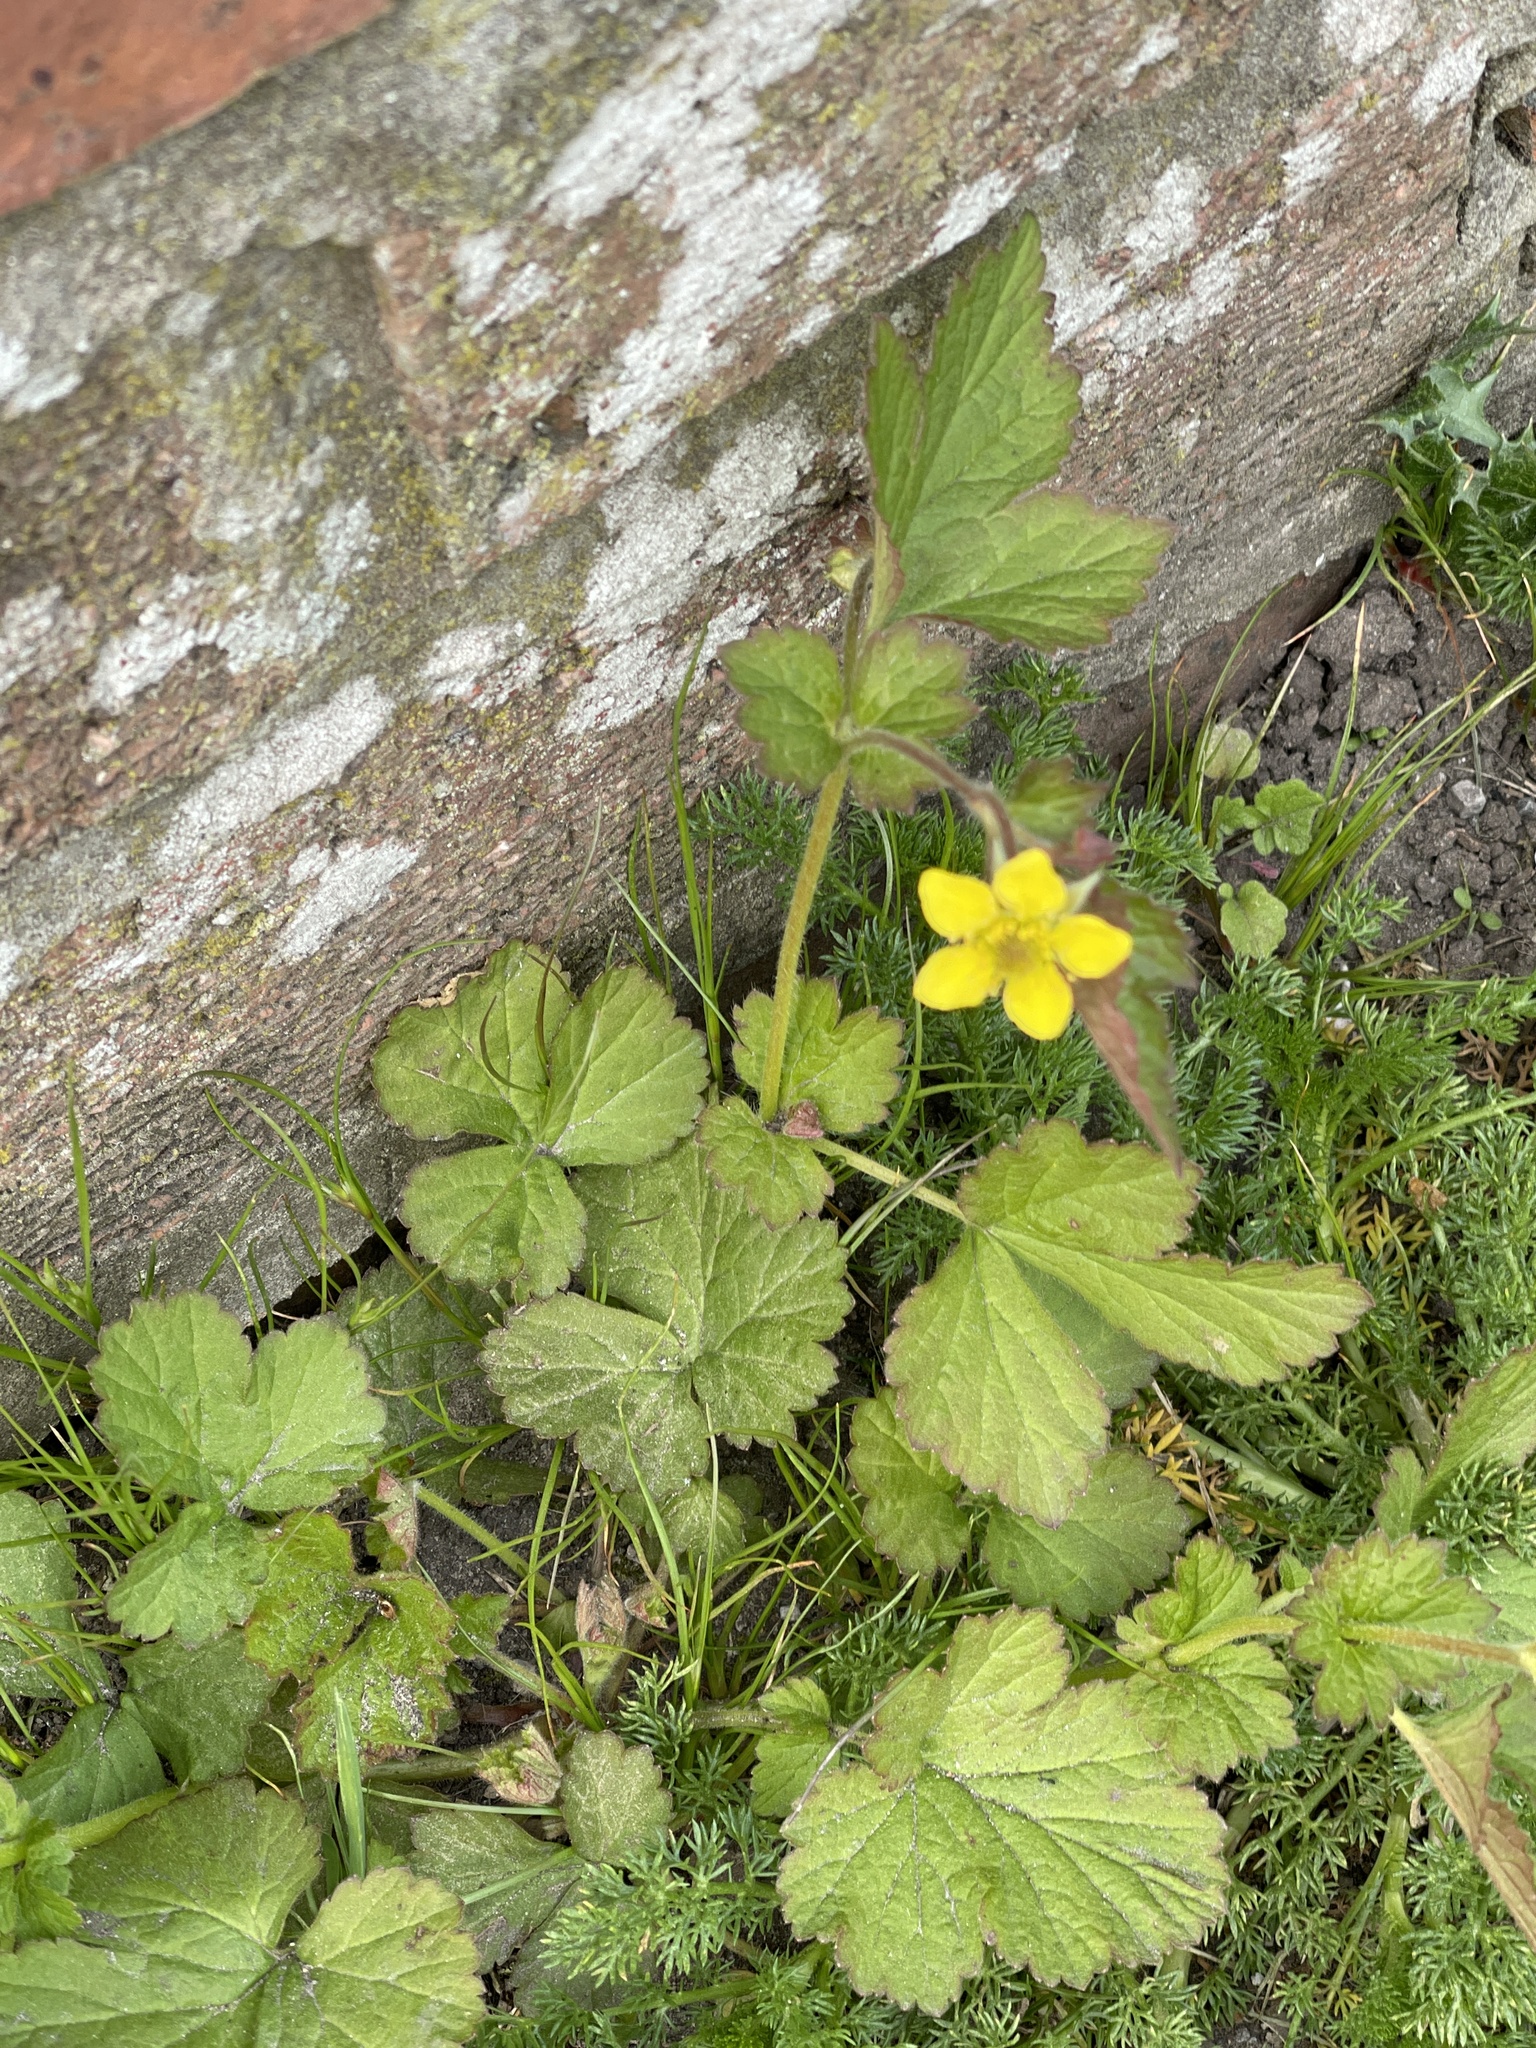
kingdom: Plantae
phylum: Tracheophyta
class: Magnoliopsida
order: Rosales
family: Rosaceae
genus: Geum
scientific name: Geum urbanum
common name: Wood avens
